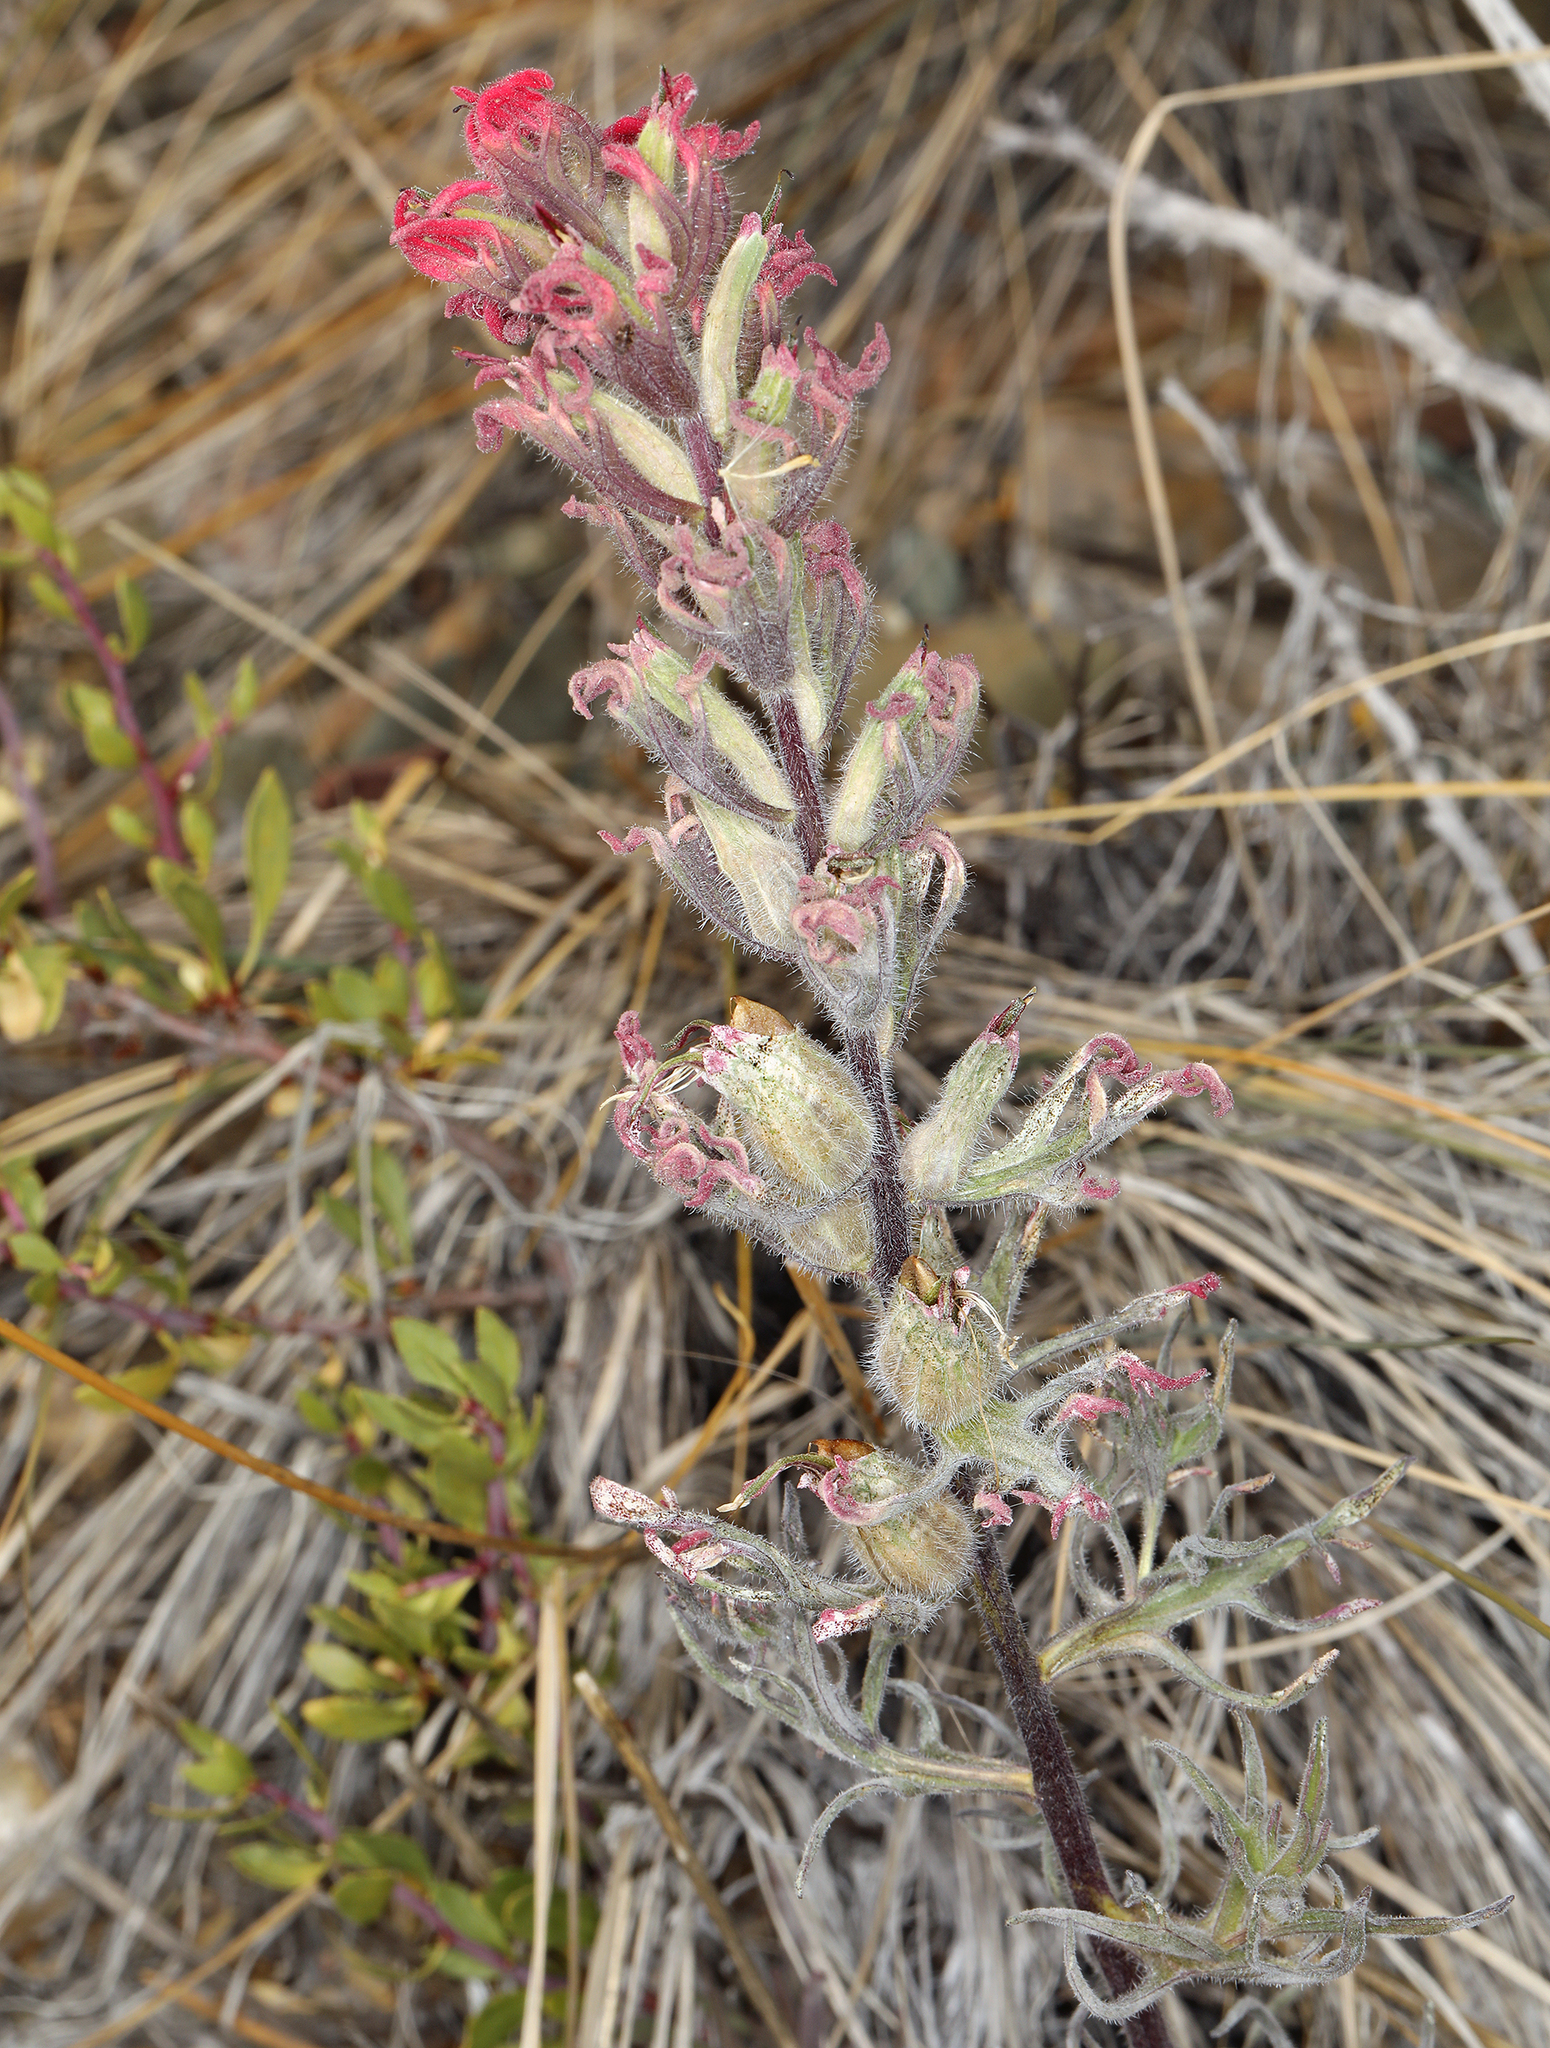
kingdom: Plantae
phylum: Tracheophyta
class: Magnoliopsida
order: Lamiales
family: Orobanchaceae
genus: Castilleja
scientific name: Castilleja chromosa
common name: Desert paintbrush
